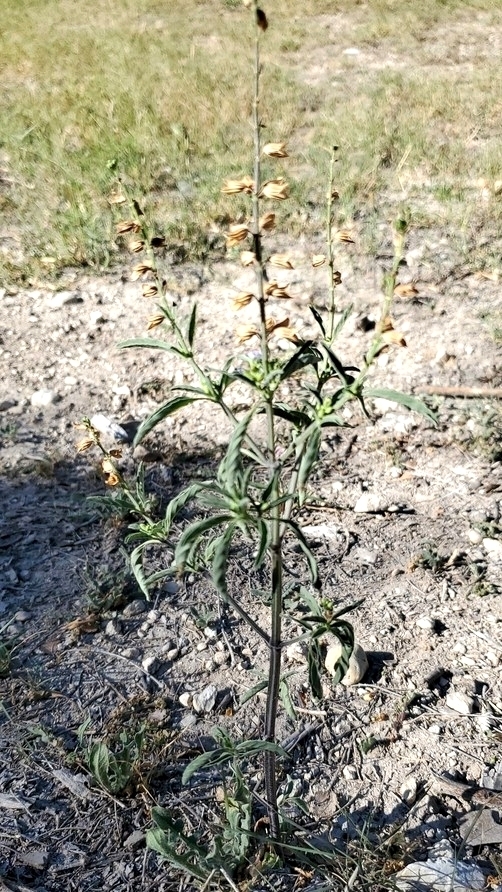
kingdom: Plantae
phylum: Tracheophyta
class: Magnoliopsida
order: Lamiales
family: Lamiaceae
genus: Salvia
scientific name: Salvia reflexa
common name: Mintweed
